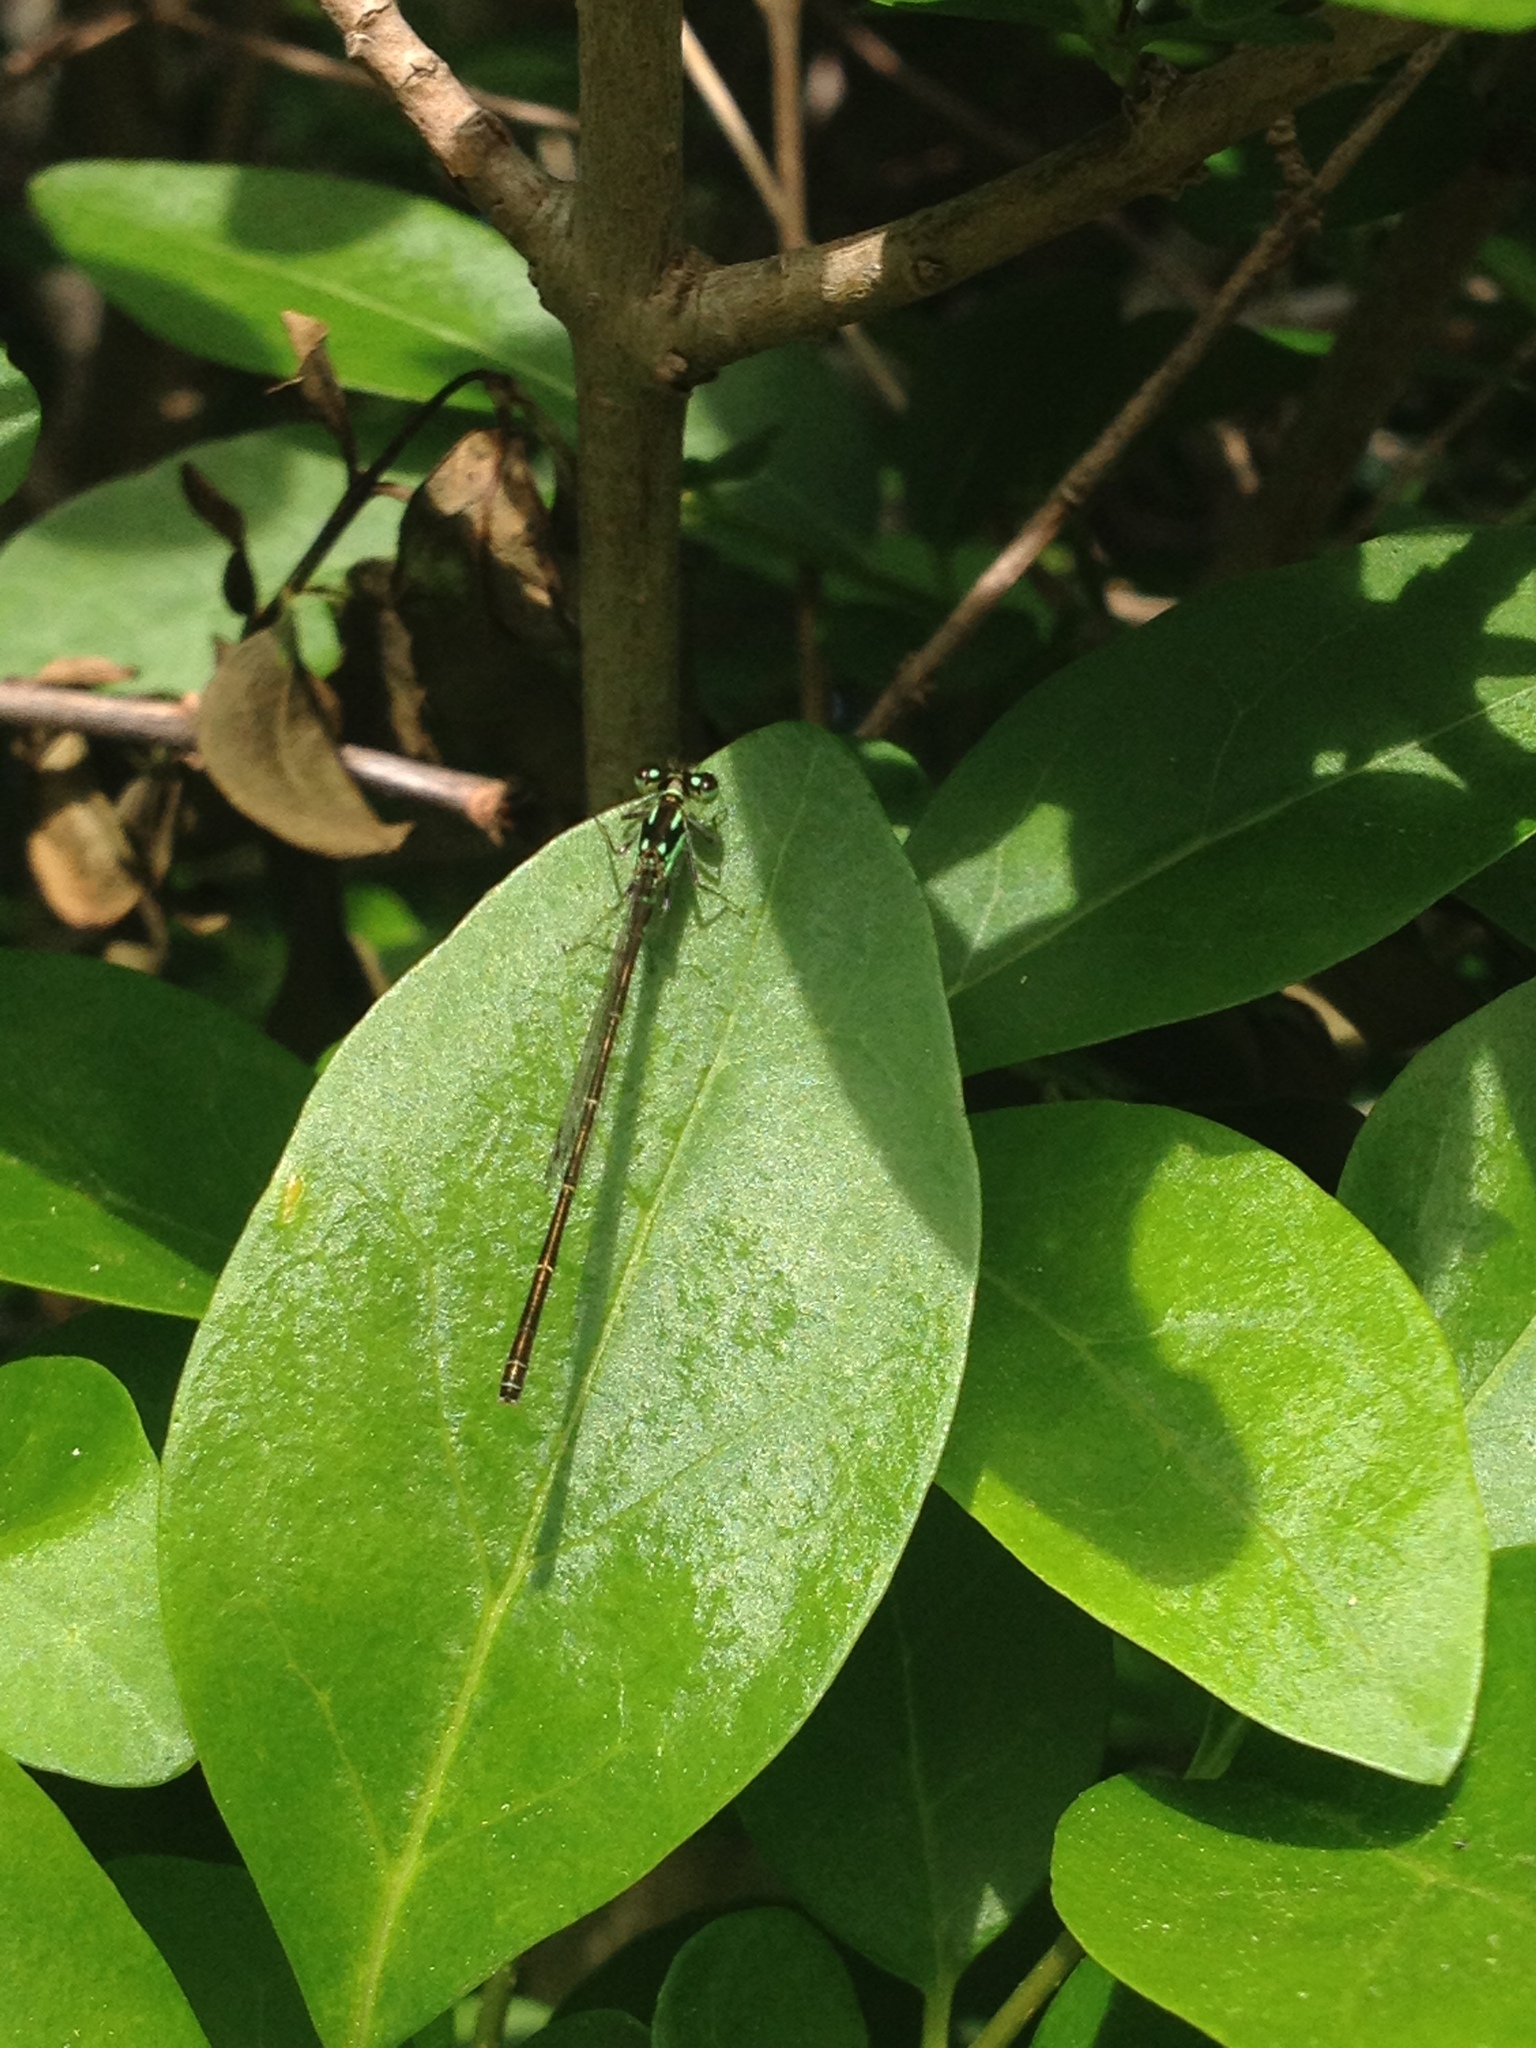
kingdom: Animalia
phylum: Arthropoda
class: Insecta
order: Odonata
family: Coenagrionidae
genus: Ischnura
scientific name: Ischnura posita
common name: Fragile forktail
